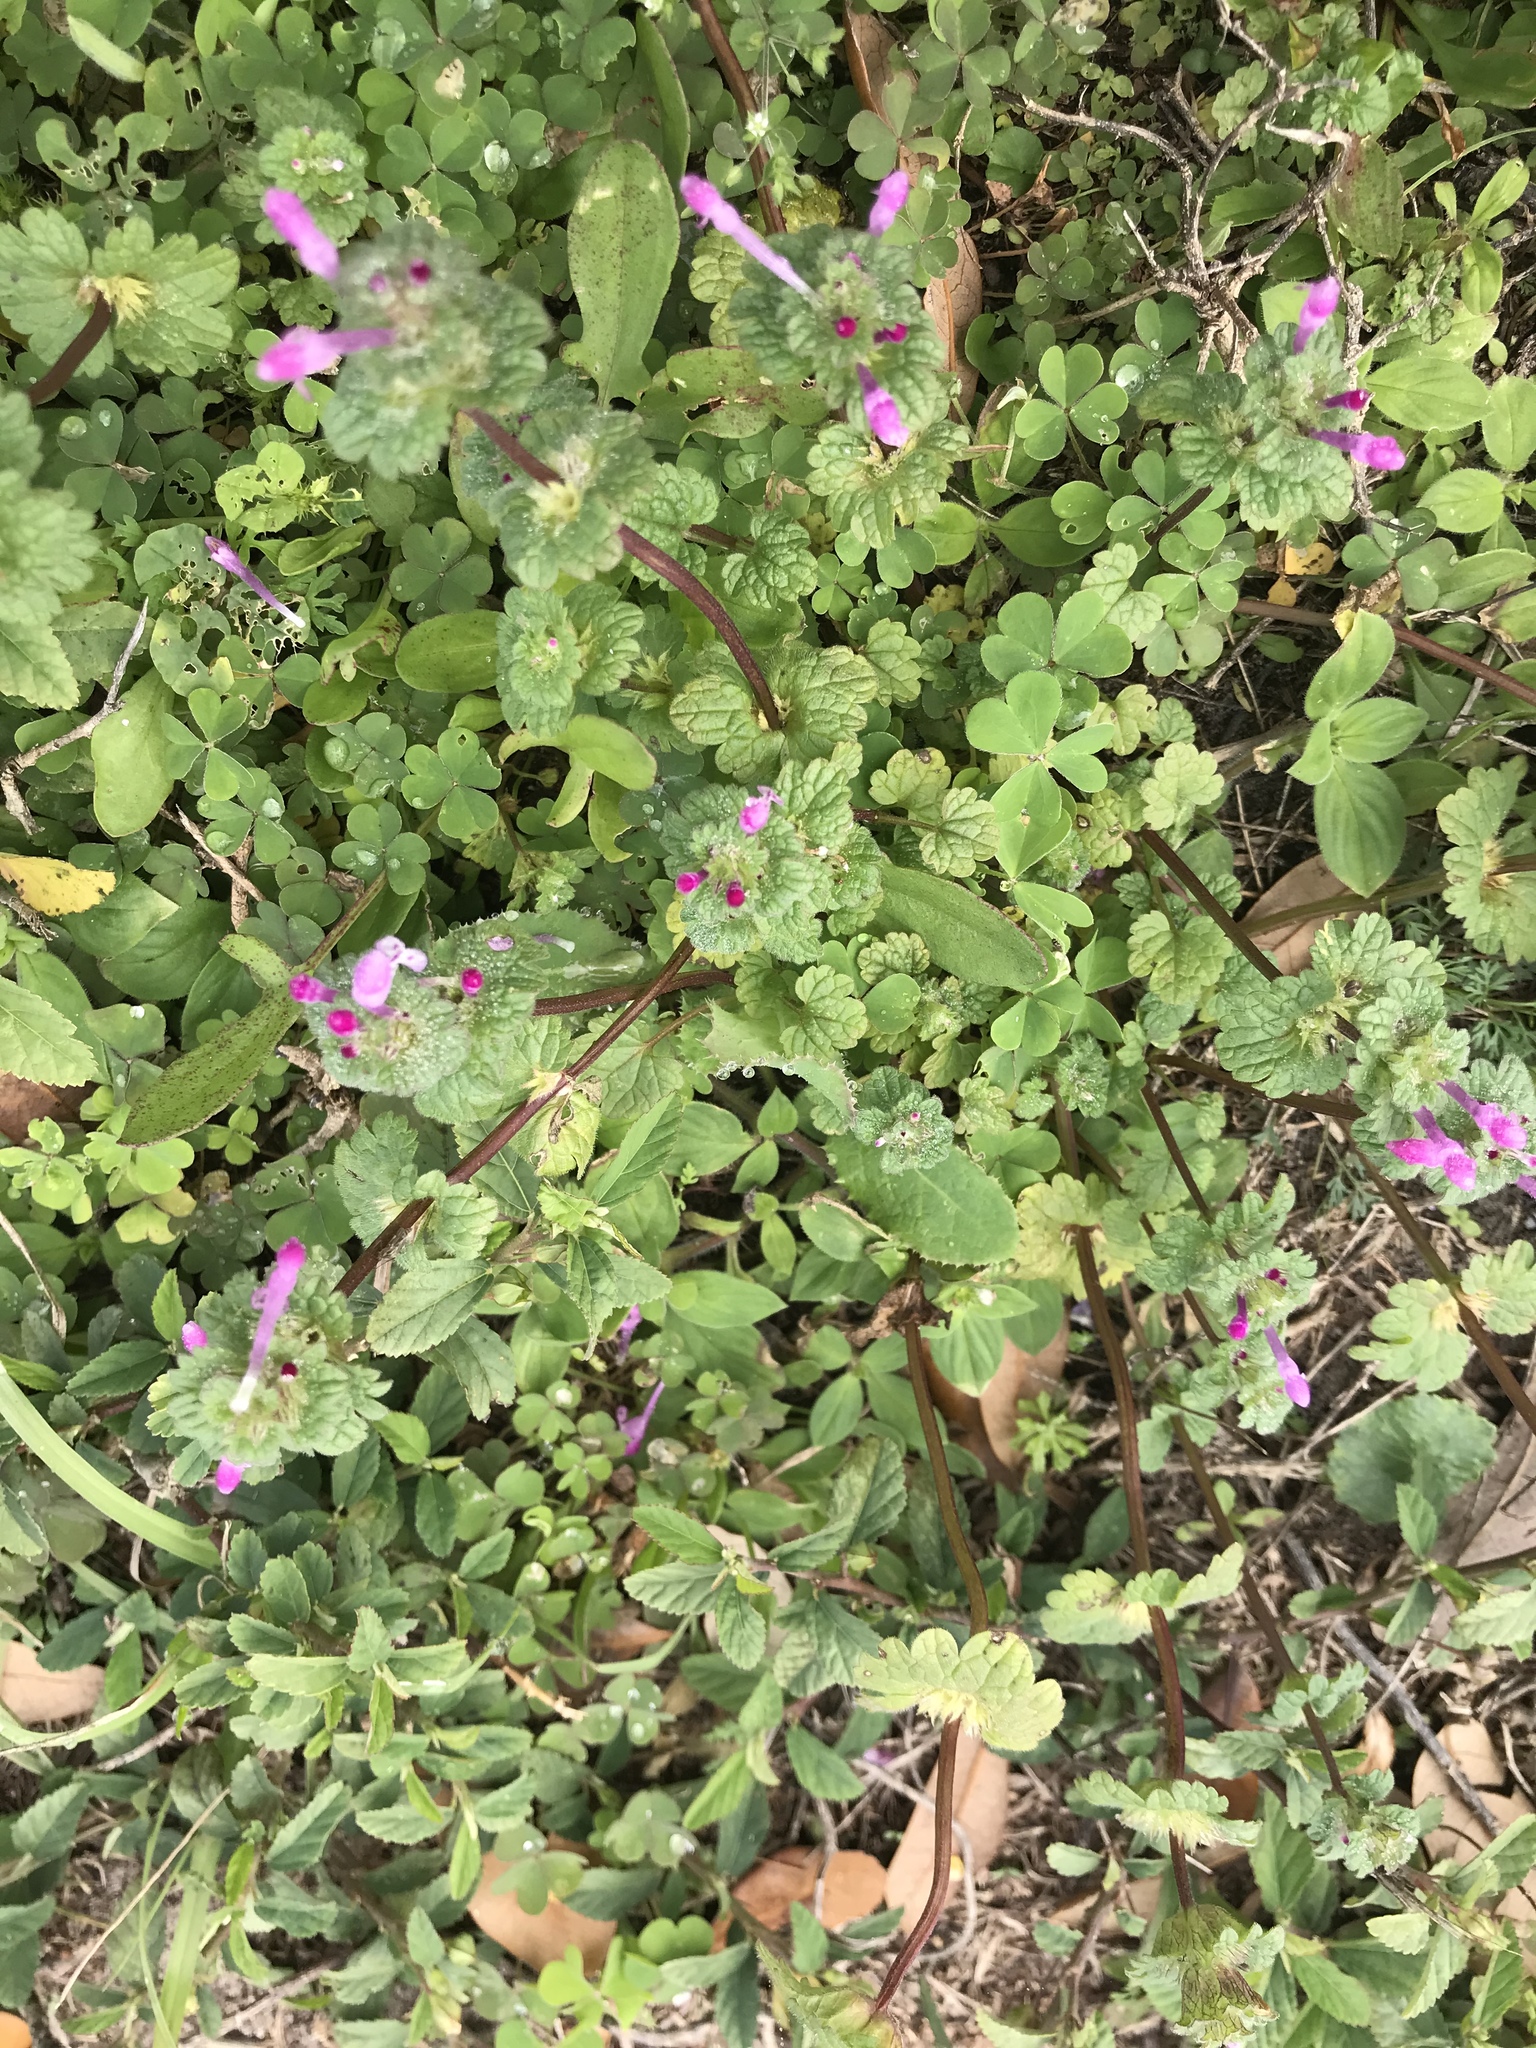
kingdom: Plantae
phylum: Tracheophyta
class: Magnoliopsida
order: Lamiales
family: Lamiaceae
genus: Lamium
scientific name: Lamium amplexicaule
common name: Henbit dead-nettle
